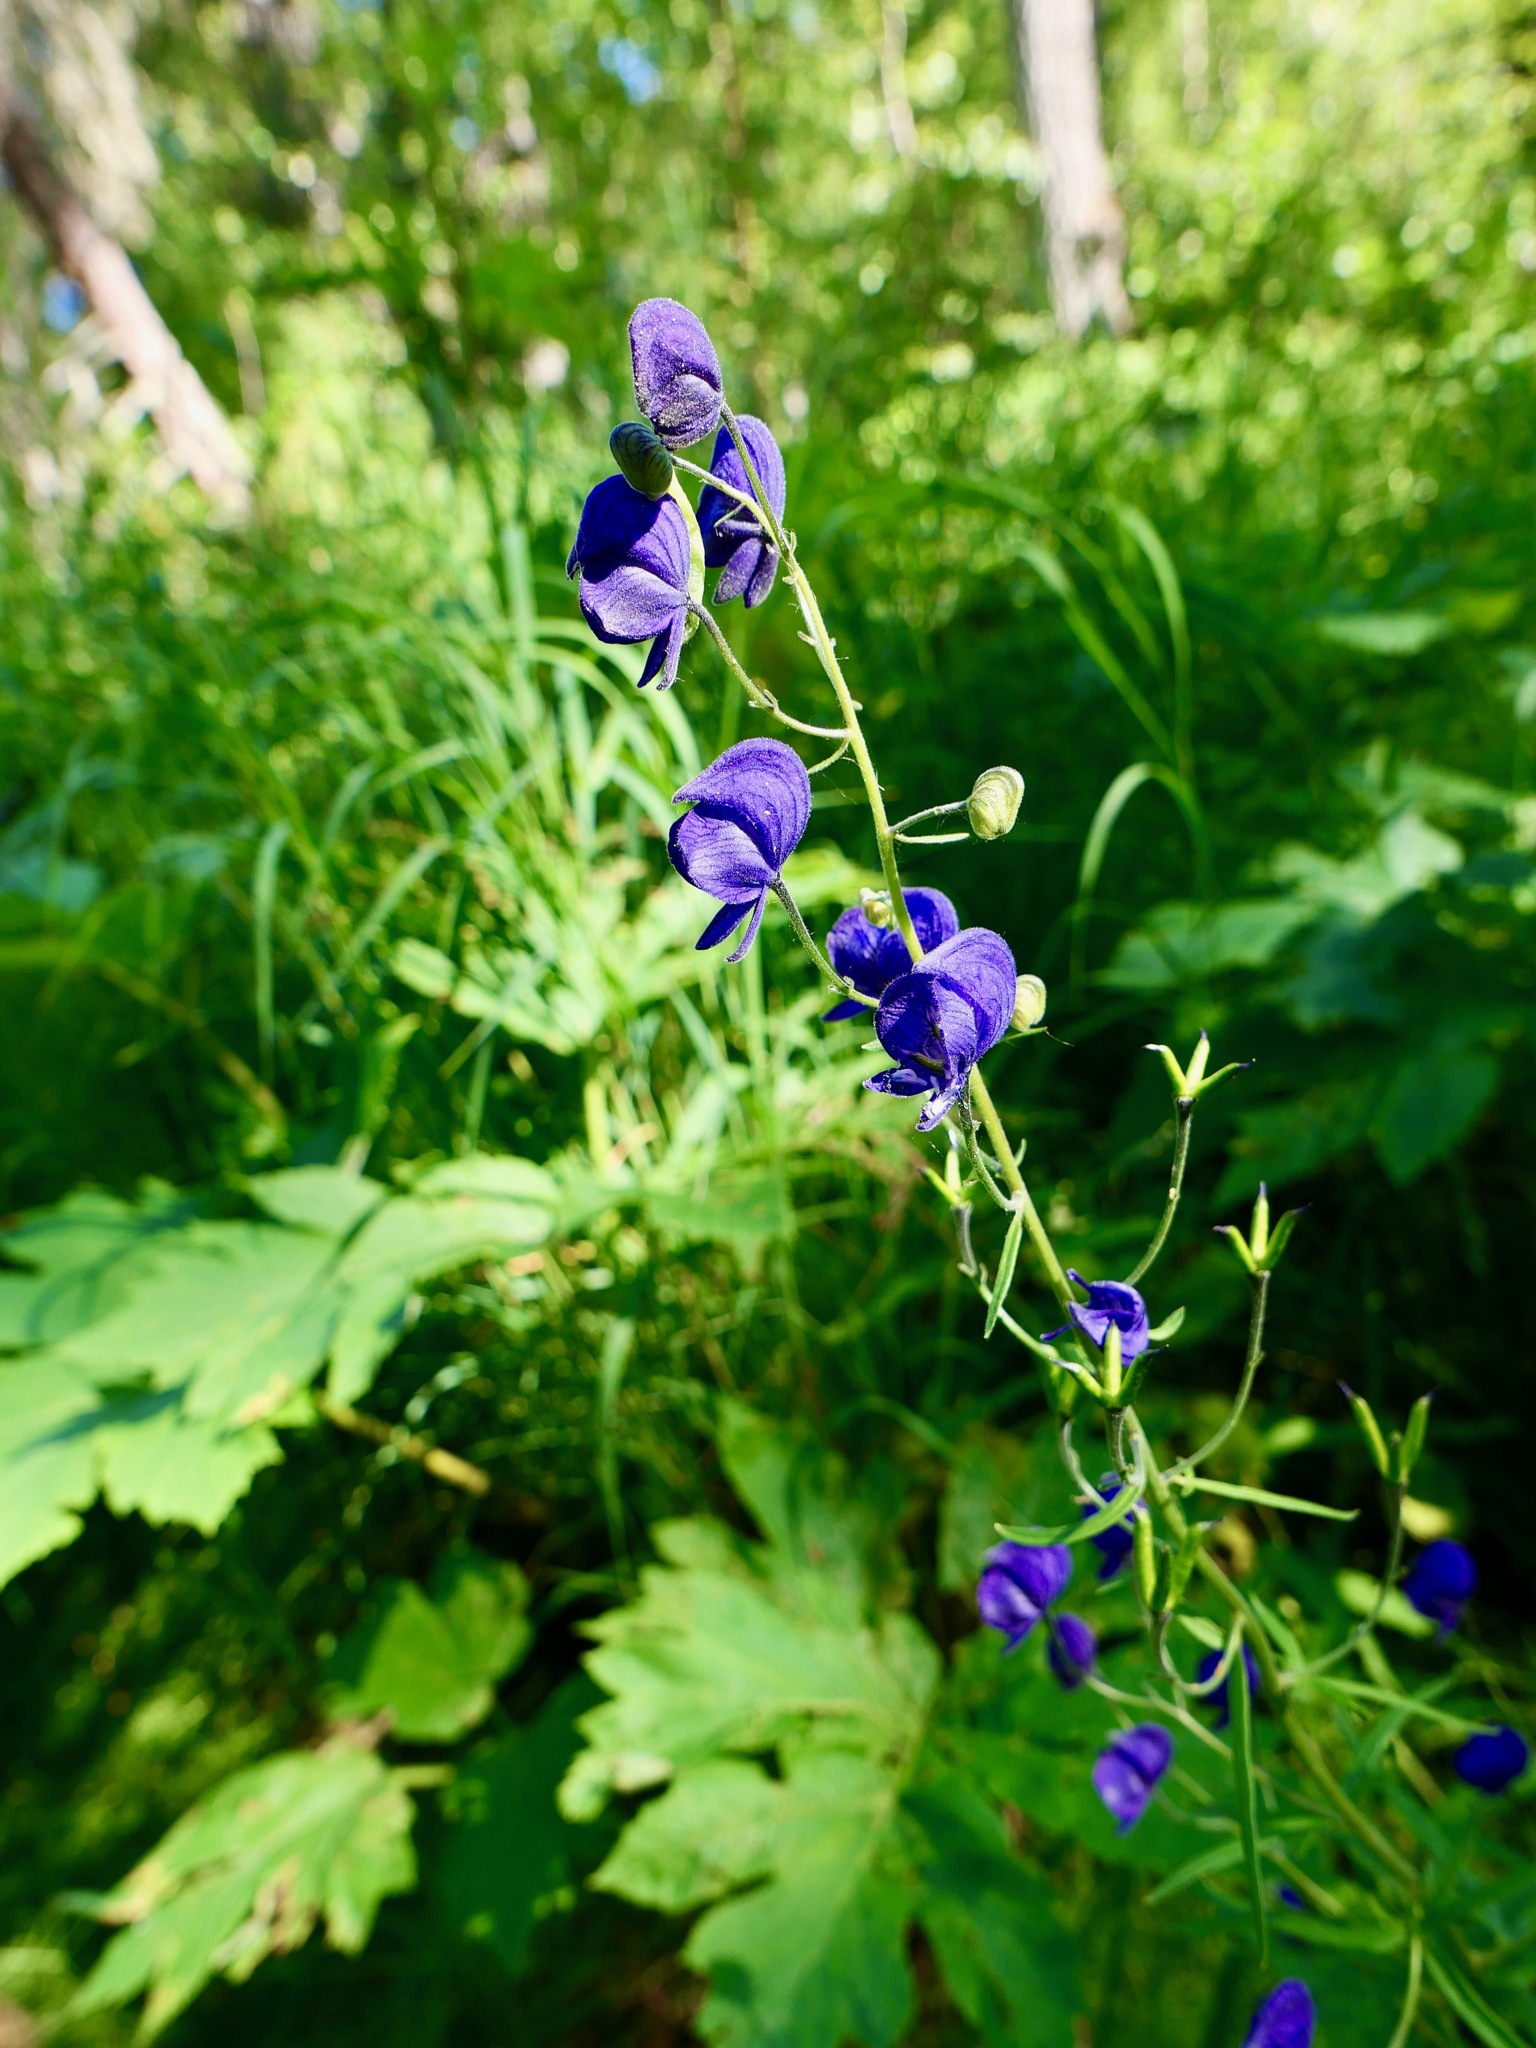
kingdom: Plantae
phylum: Tracheophyta
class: Magnoliopsida
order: Ranunculales
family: Ranunculaceae
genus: Aconitum
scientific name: Aconitum delphiniifolium
